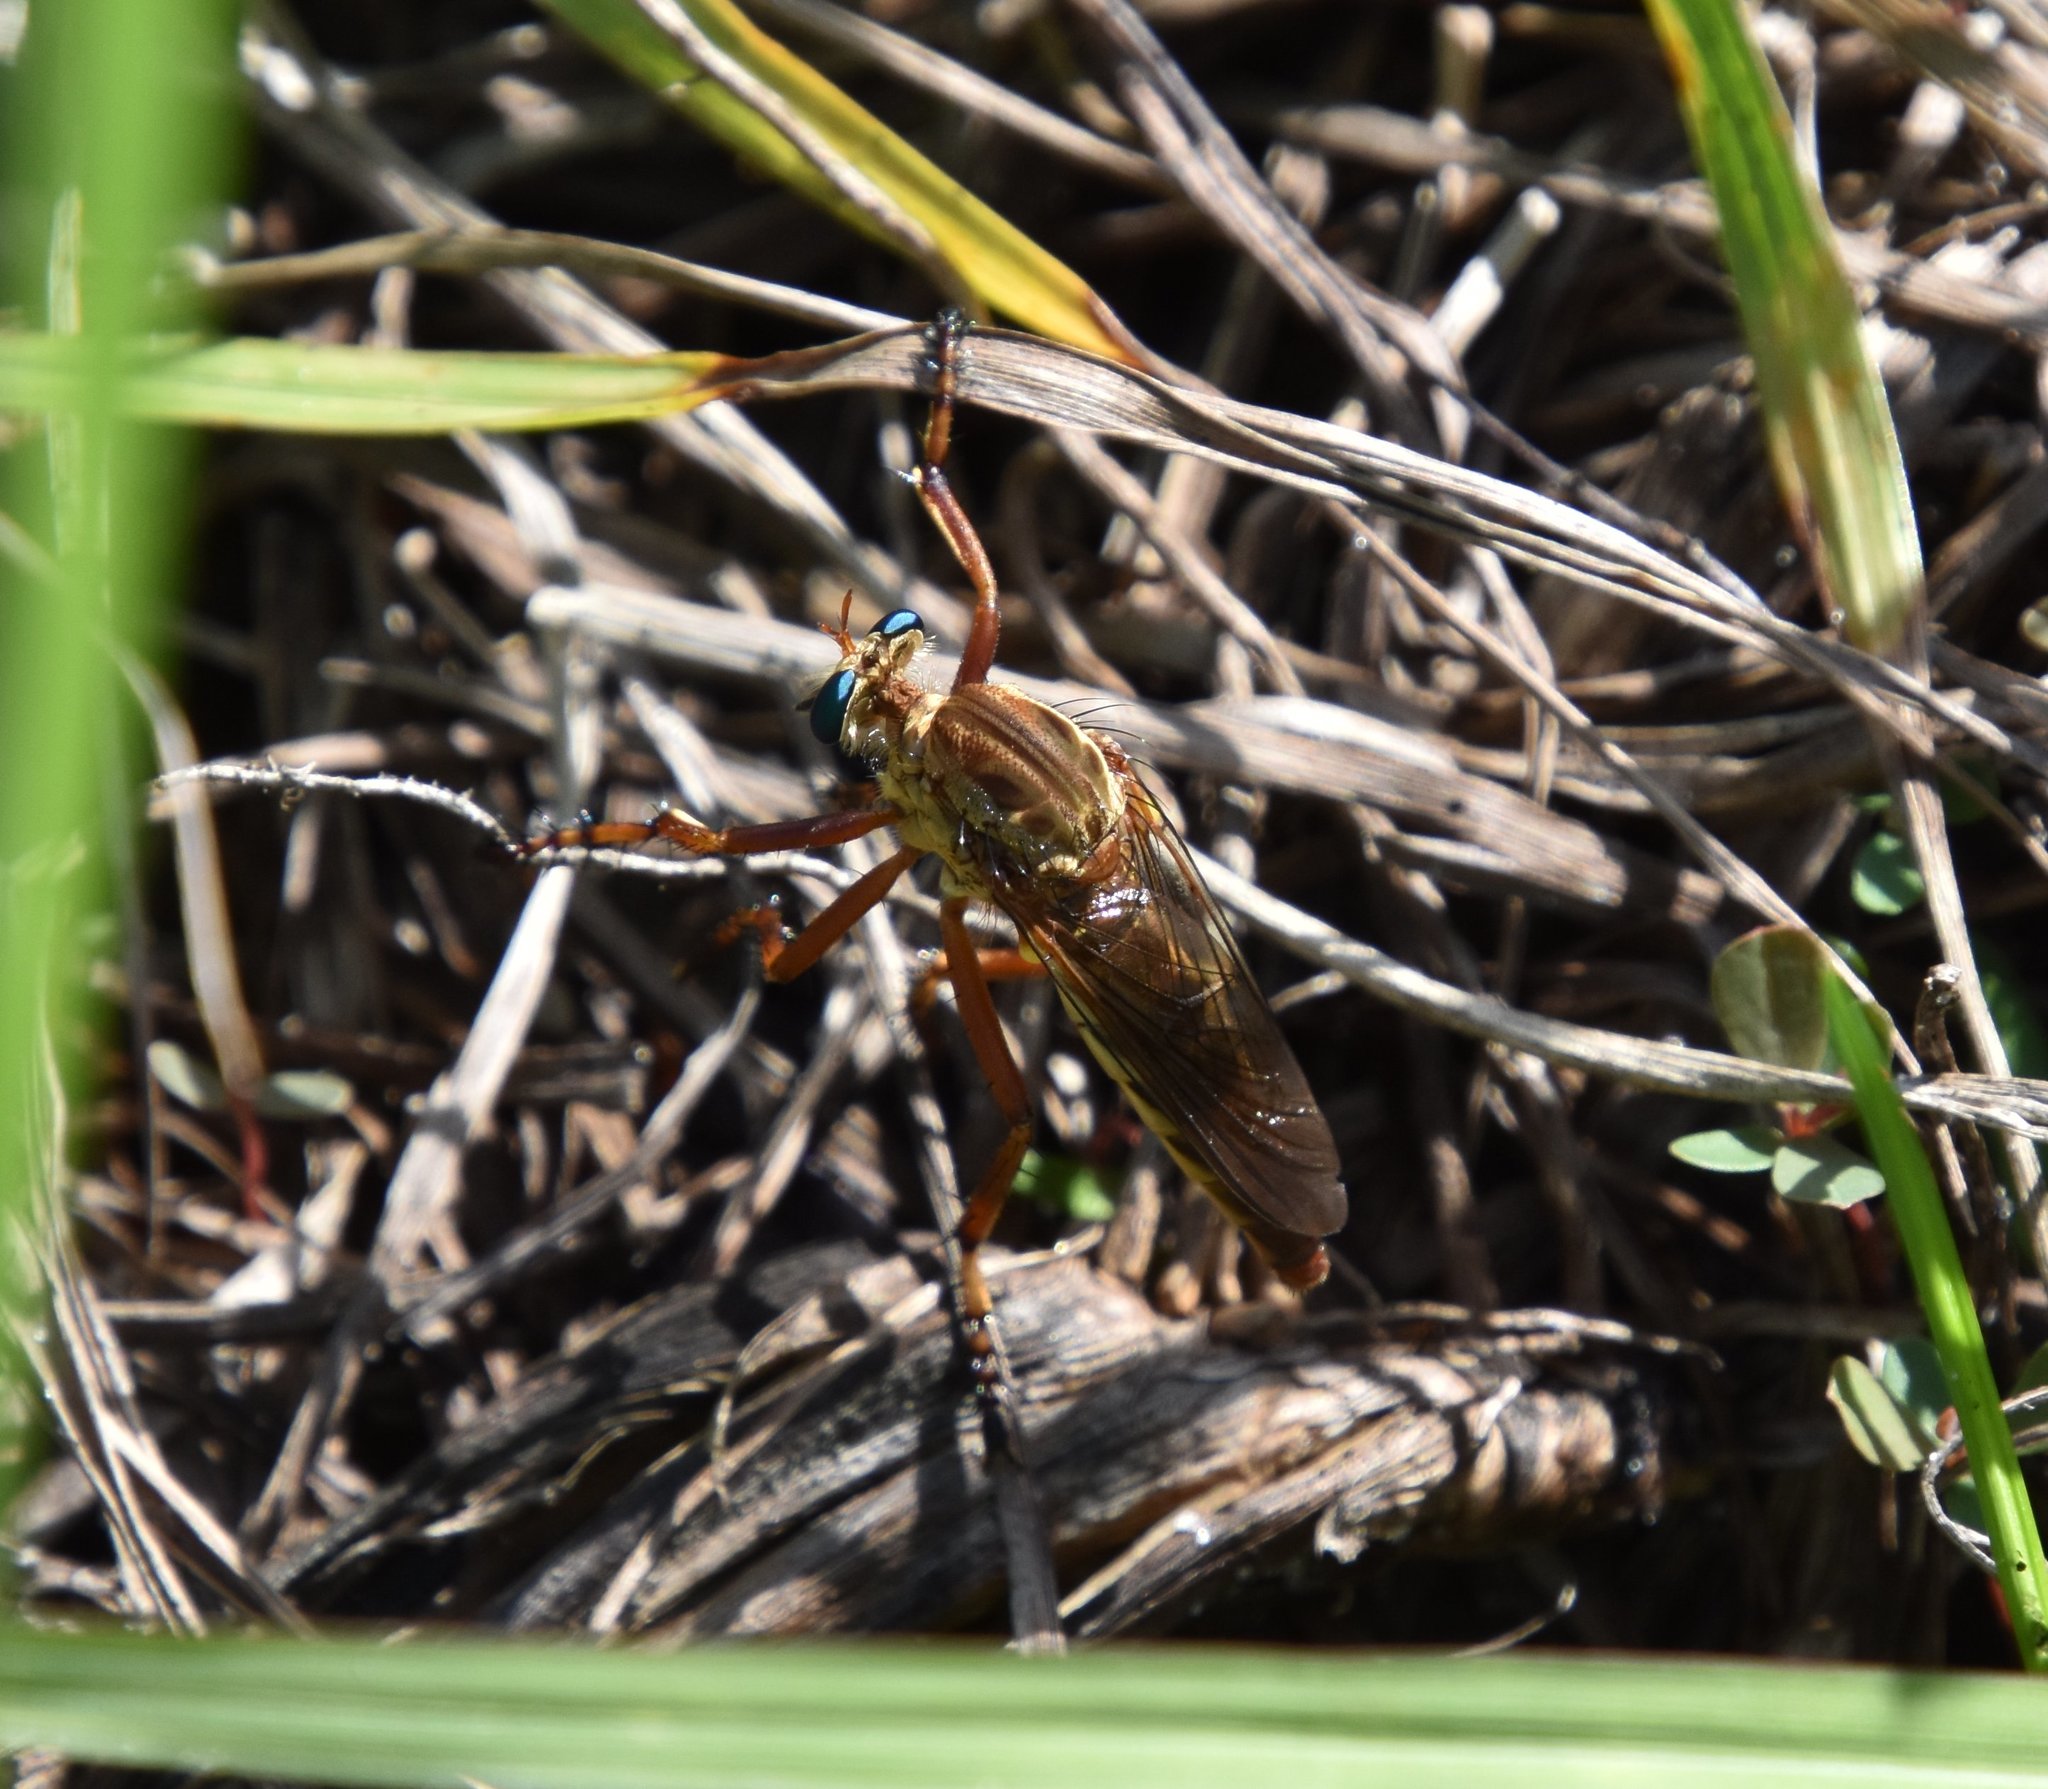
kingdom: Animalia
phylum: Arthropoda
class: Insecta
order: Diptera
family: Asilidae
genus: Diogmites
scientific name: Diogmites crudelis
